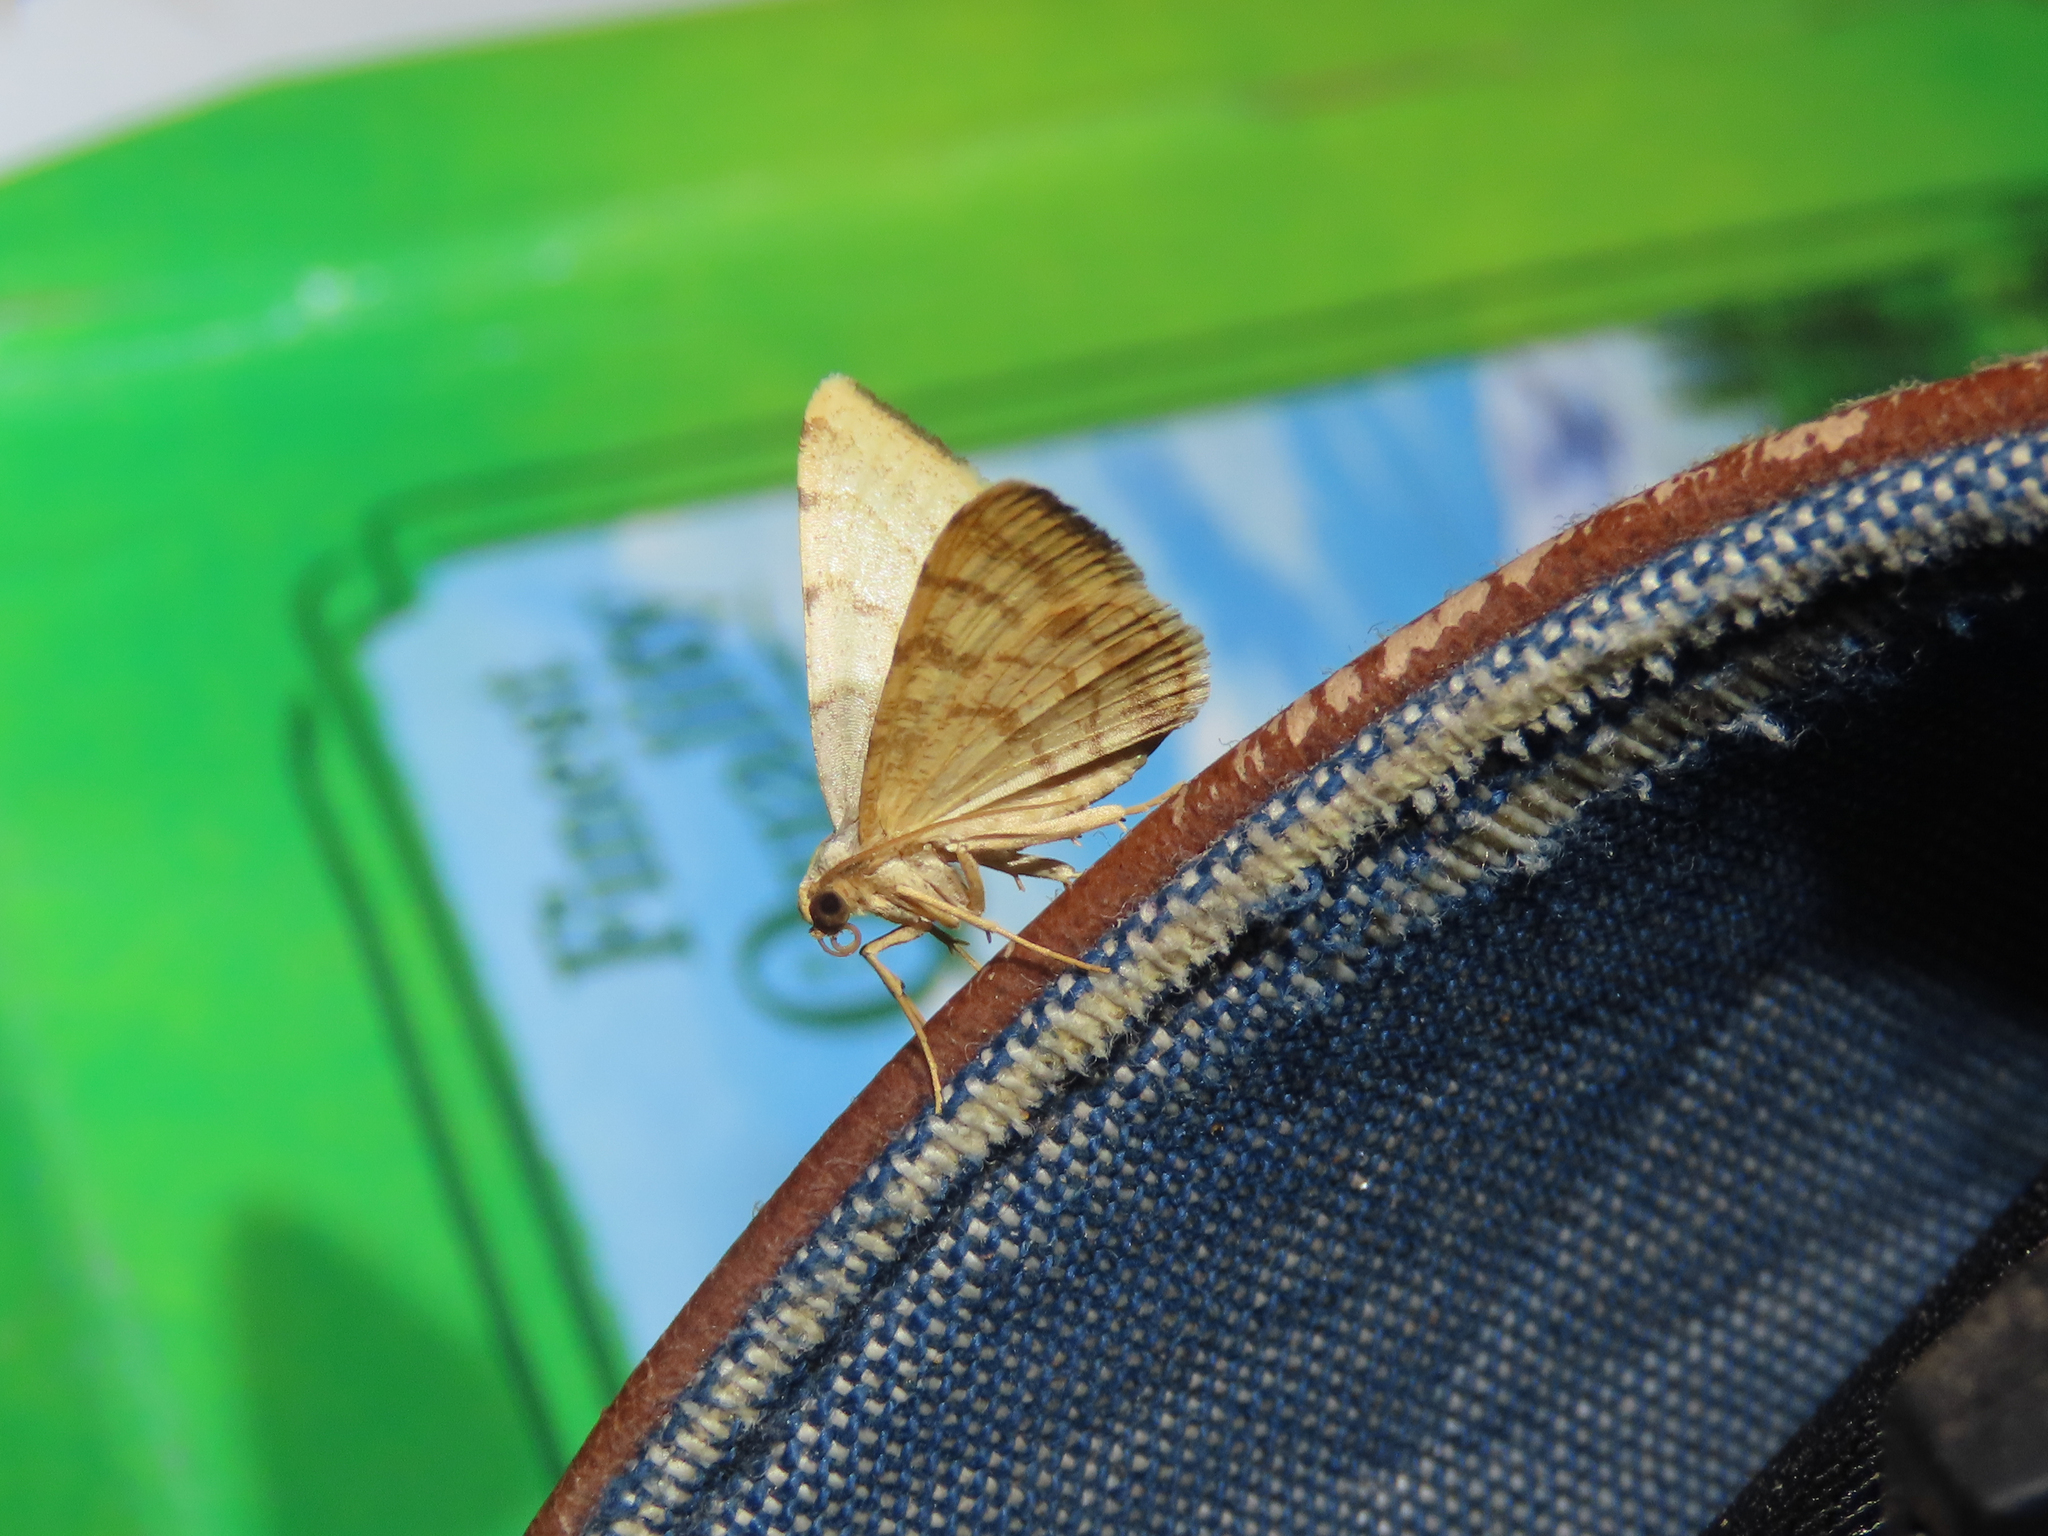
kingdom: Animalia
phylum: Arthropoda
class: Insecta
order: Lepidoptera
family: Geometridae
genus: Macaria
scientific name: Macaria octolineata
